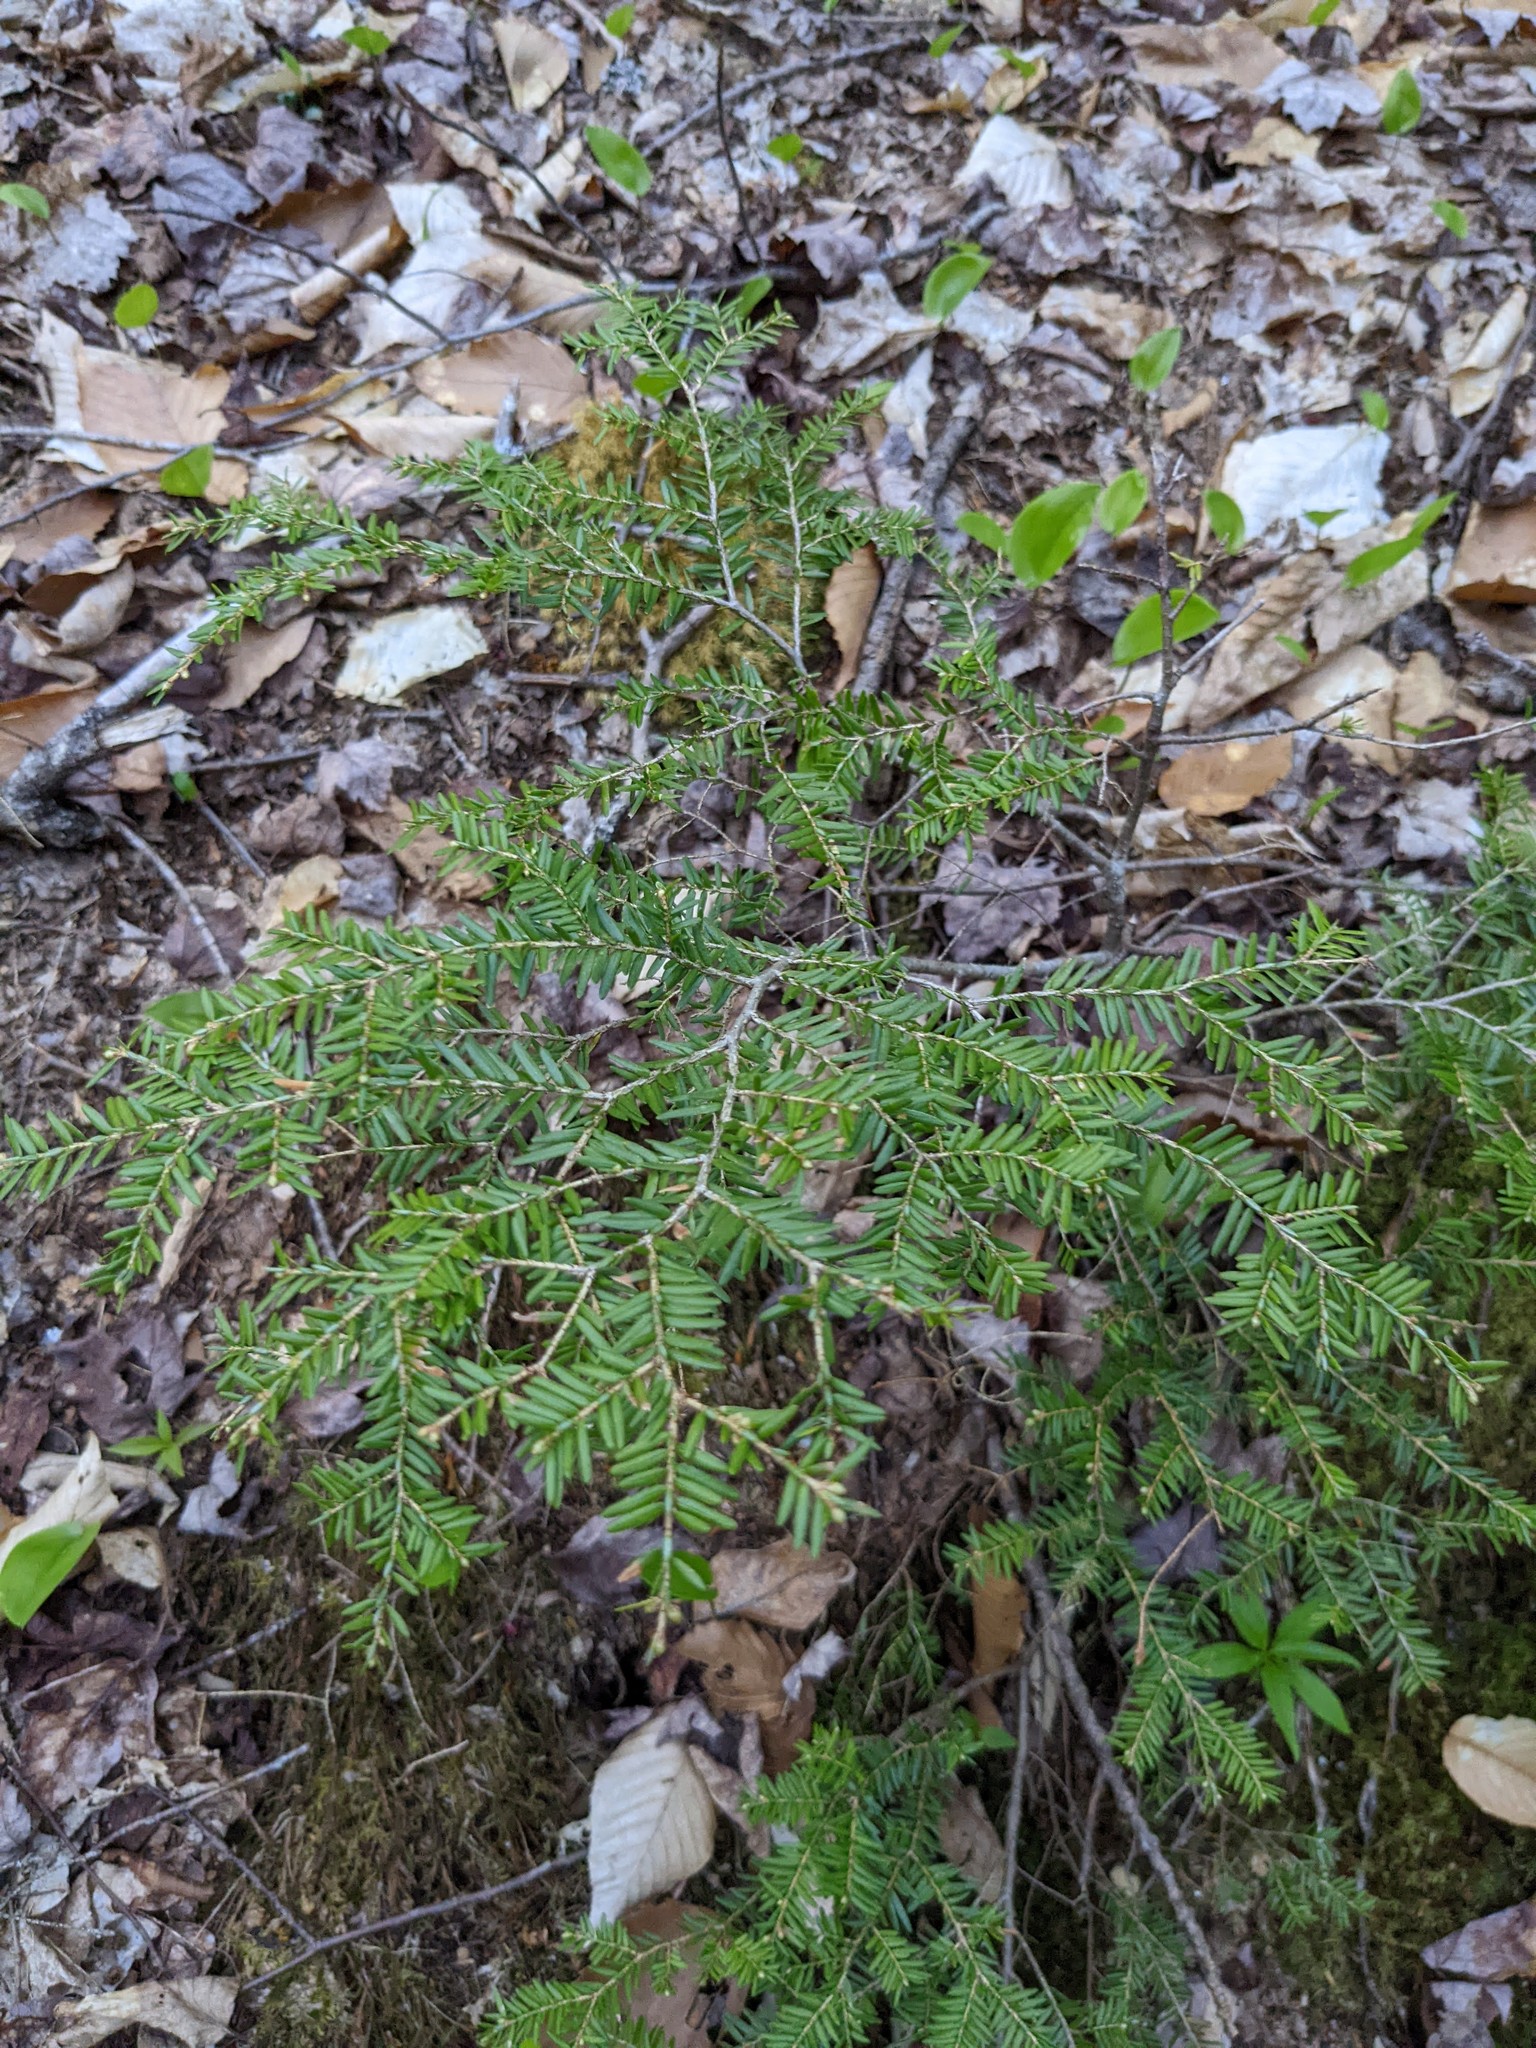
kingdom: Plantae
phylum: Tracheophyta
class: Pinopsida
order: Pinales
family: Pinaceae
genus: Tsuga
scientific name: Tsuga canadensis
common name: Eastern hemlock
